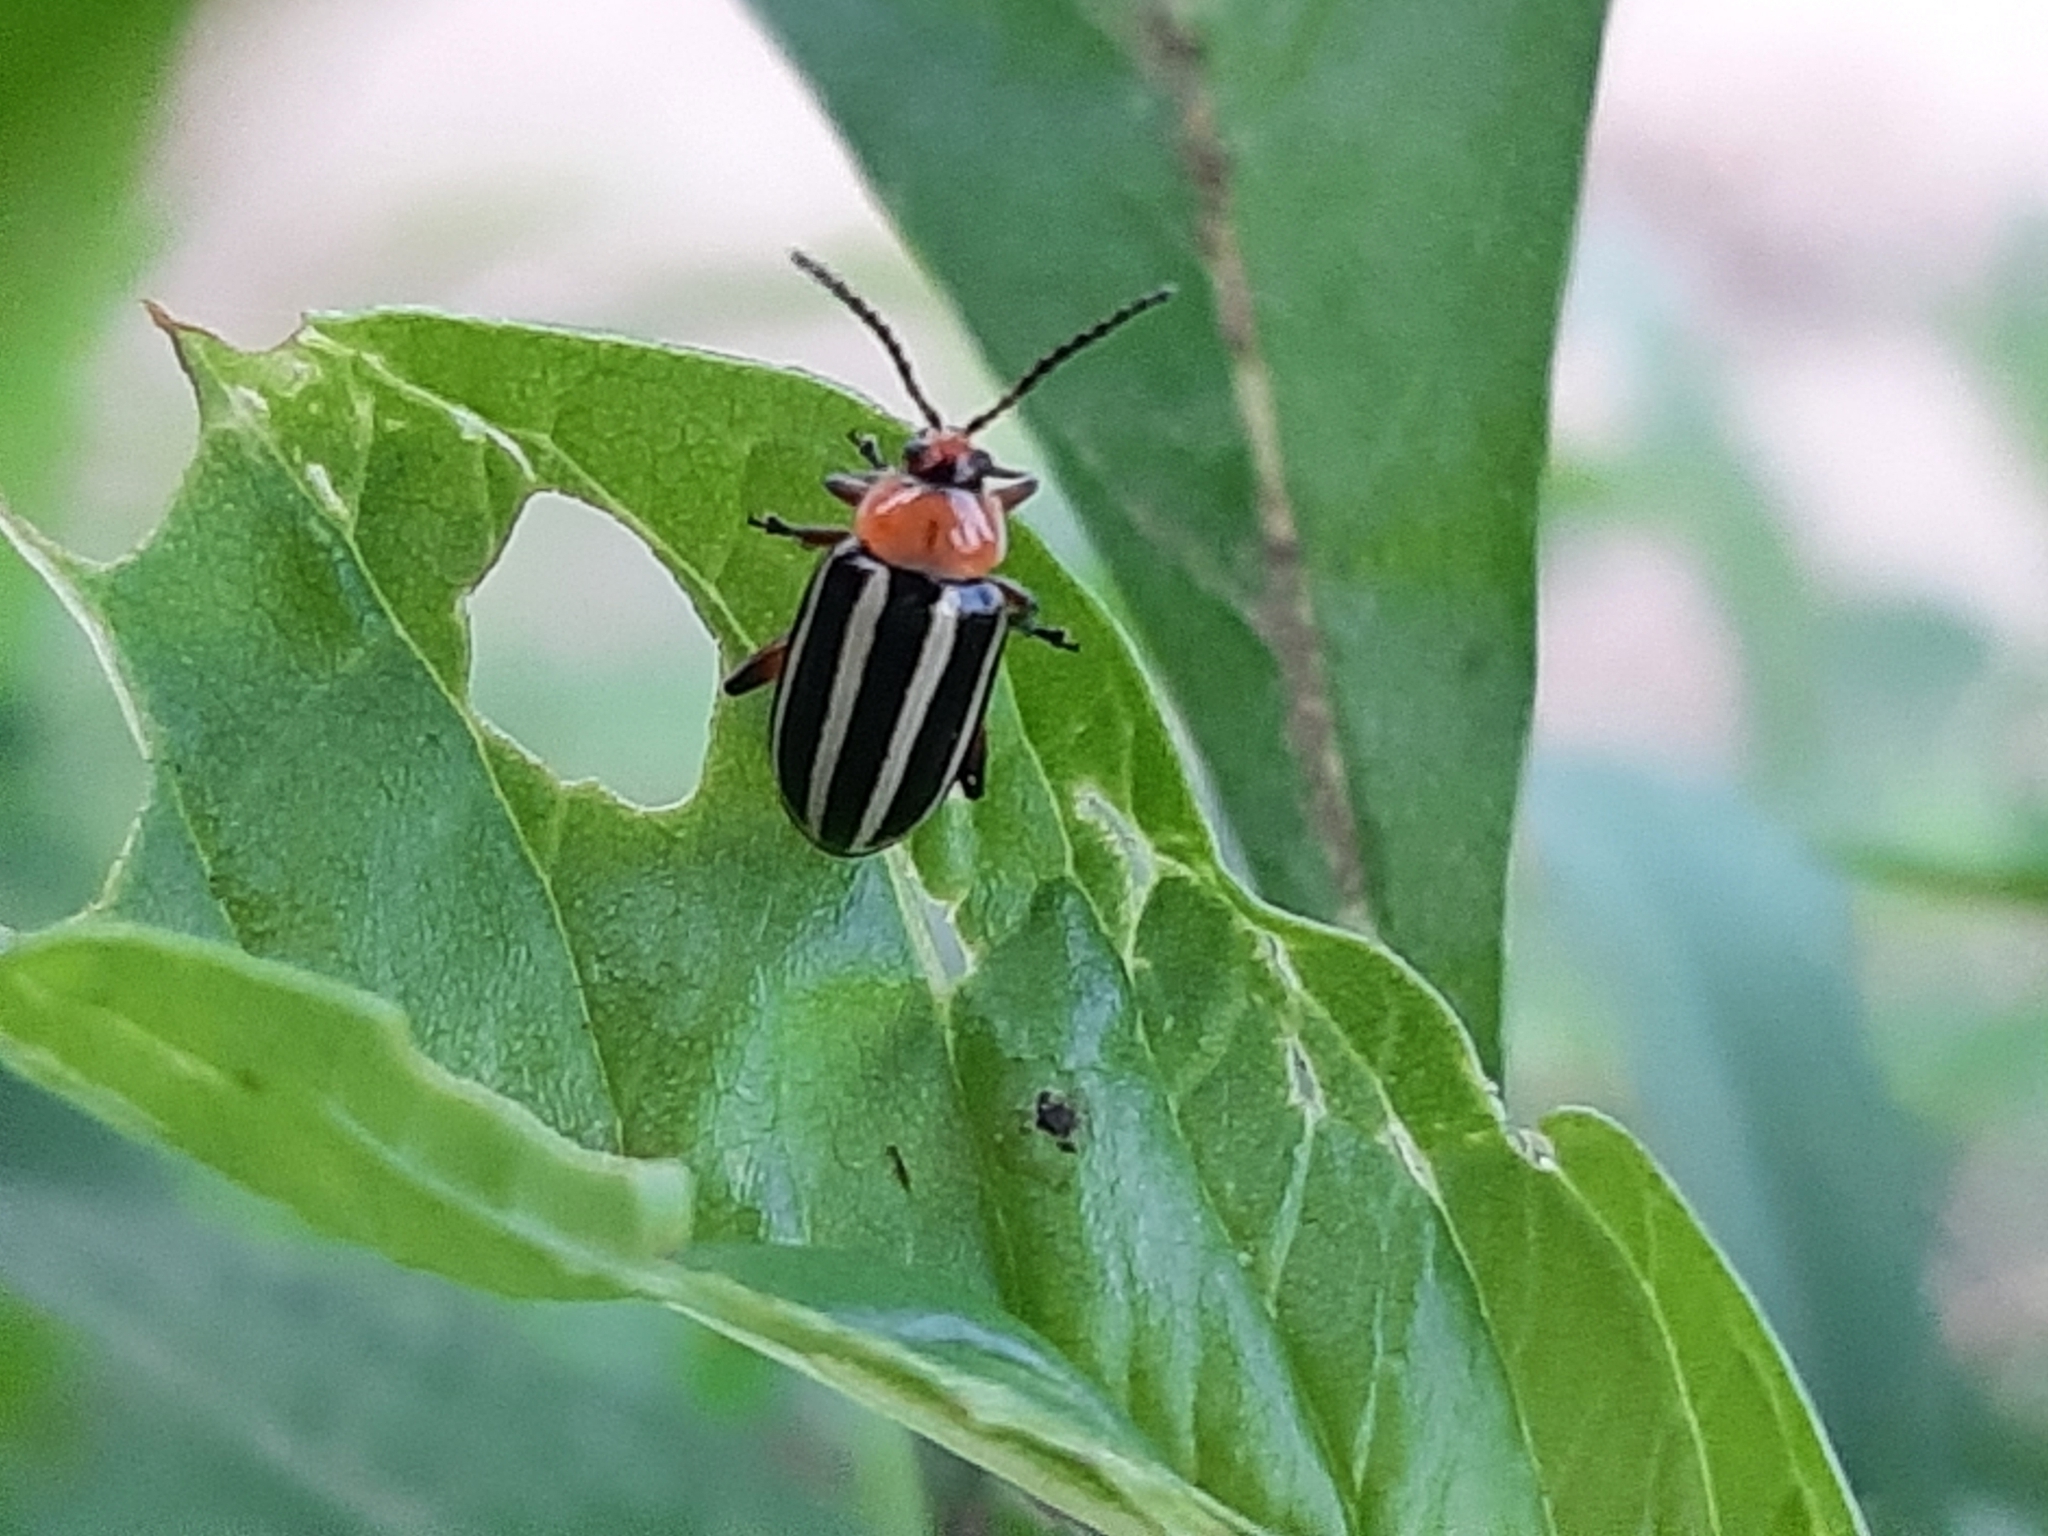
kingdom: Animalia
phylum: Arthropoda
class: Insecta
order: Coleoptera
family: Chrysomelidae
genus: Disonycha
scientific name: Disonycha glabrata
